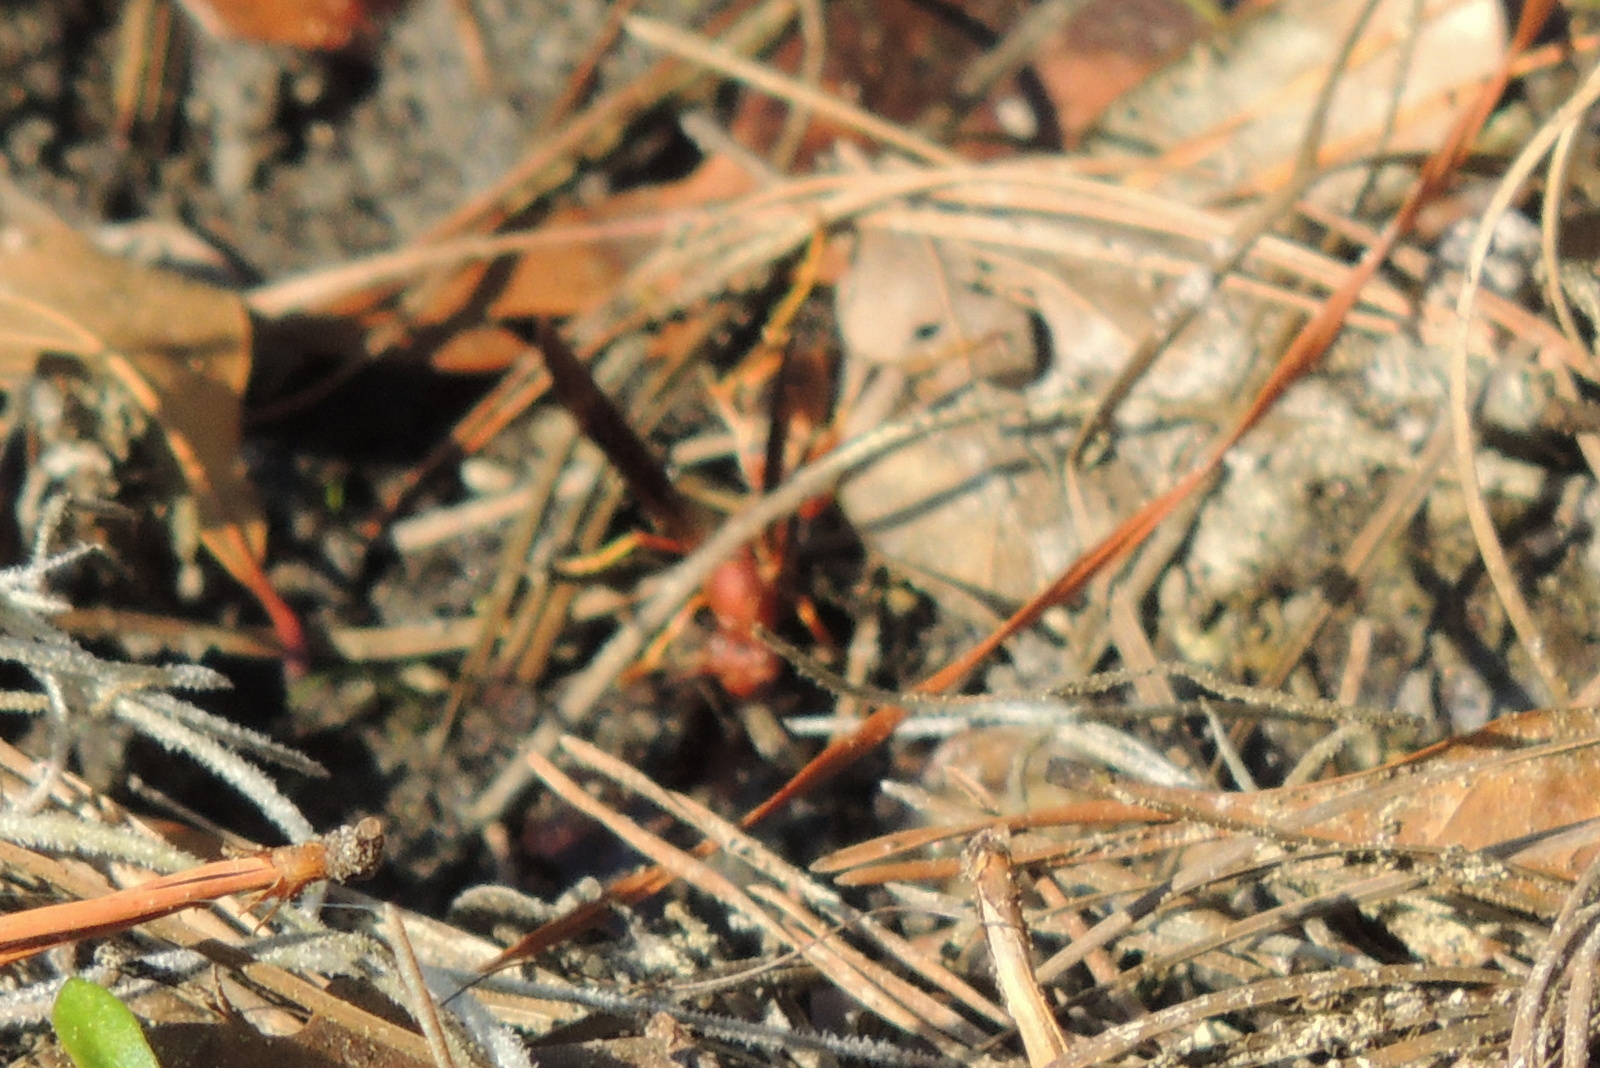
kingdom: Animalia
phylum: Arthropoda
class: Insecta
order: Hymenoptera
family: Eumenidae
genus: Polistes
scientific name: Polistes fuscatus
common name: Dark paper wasp
